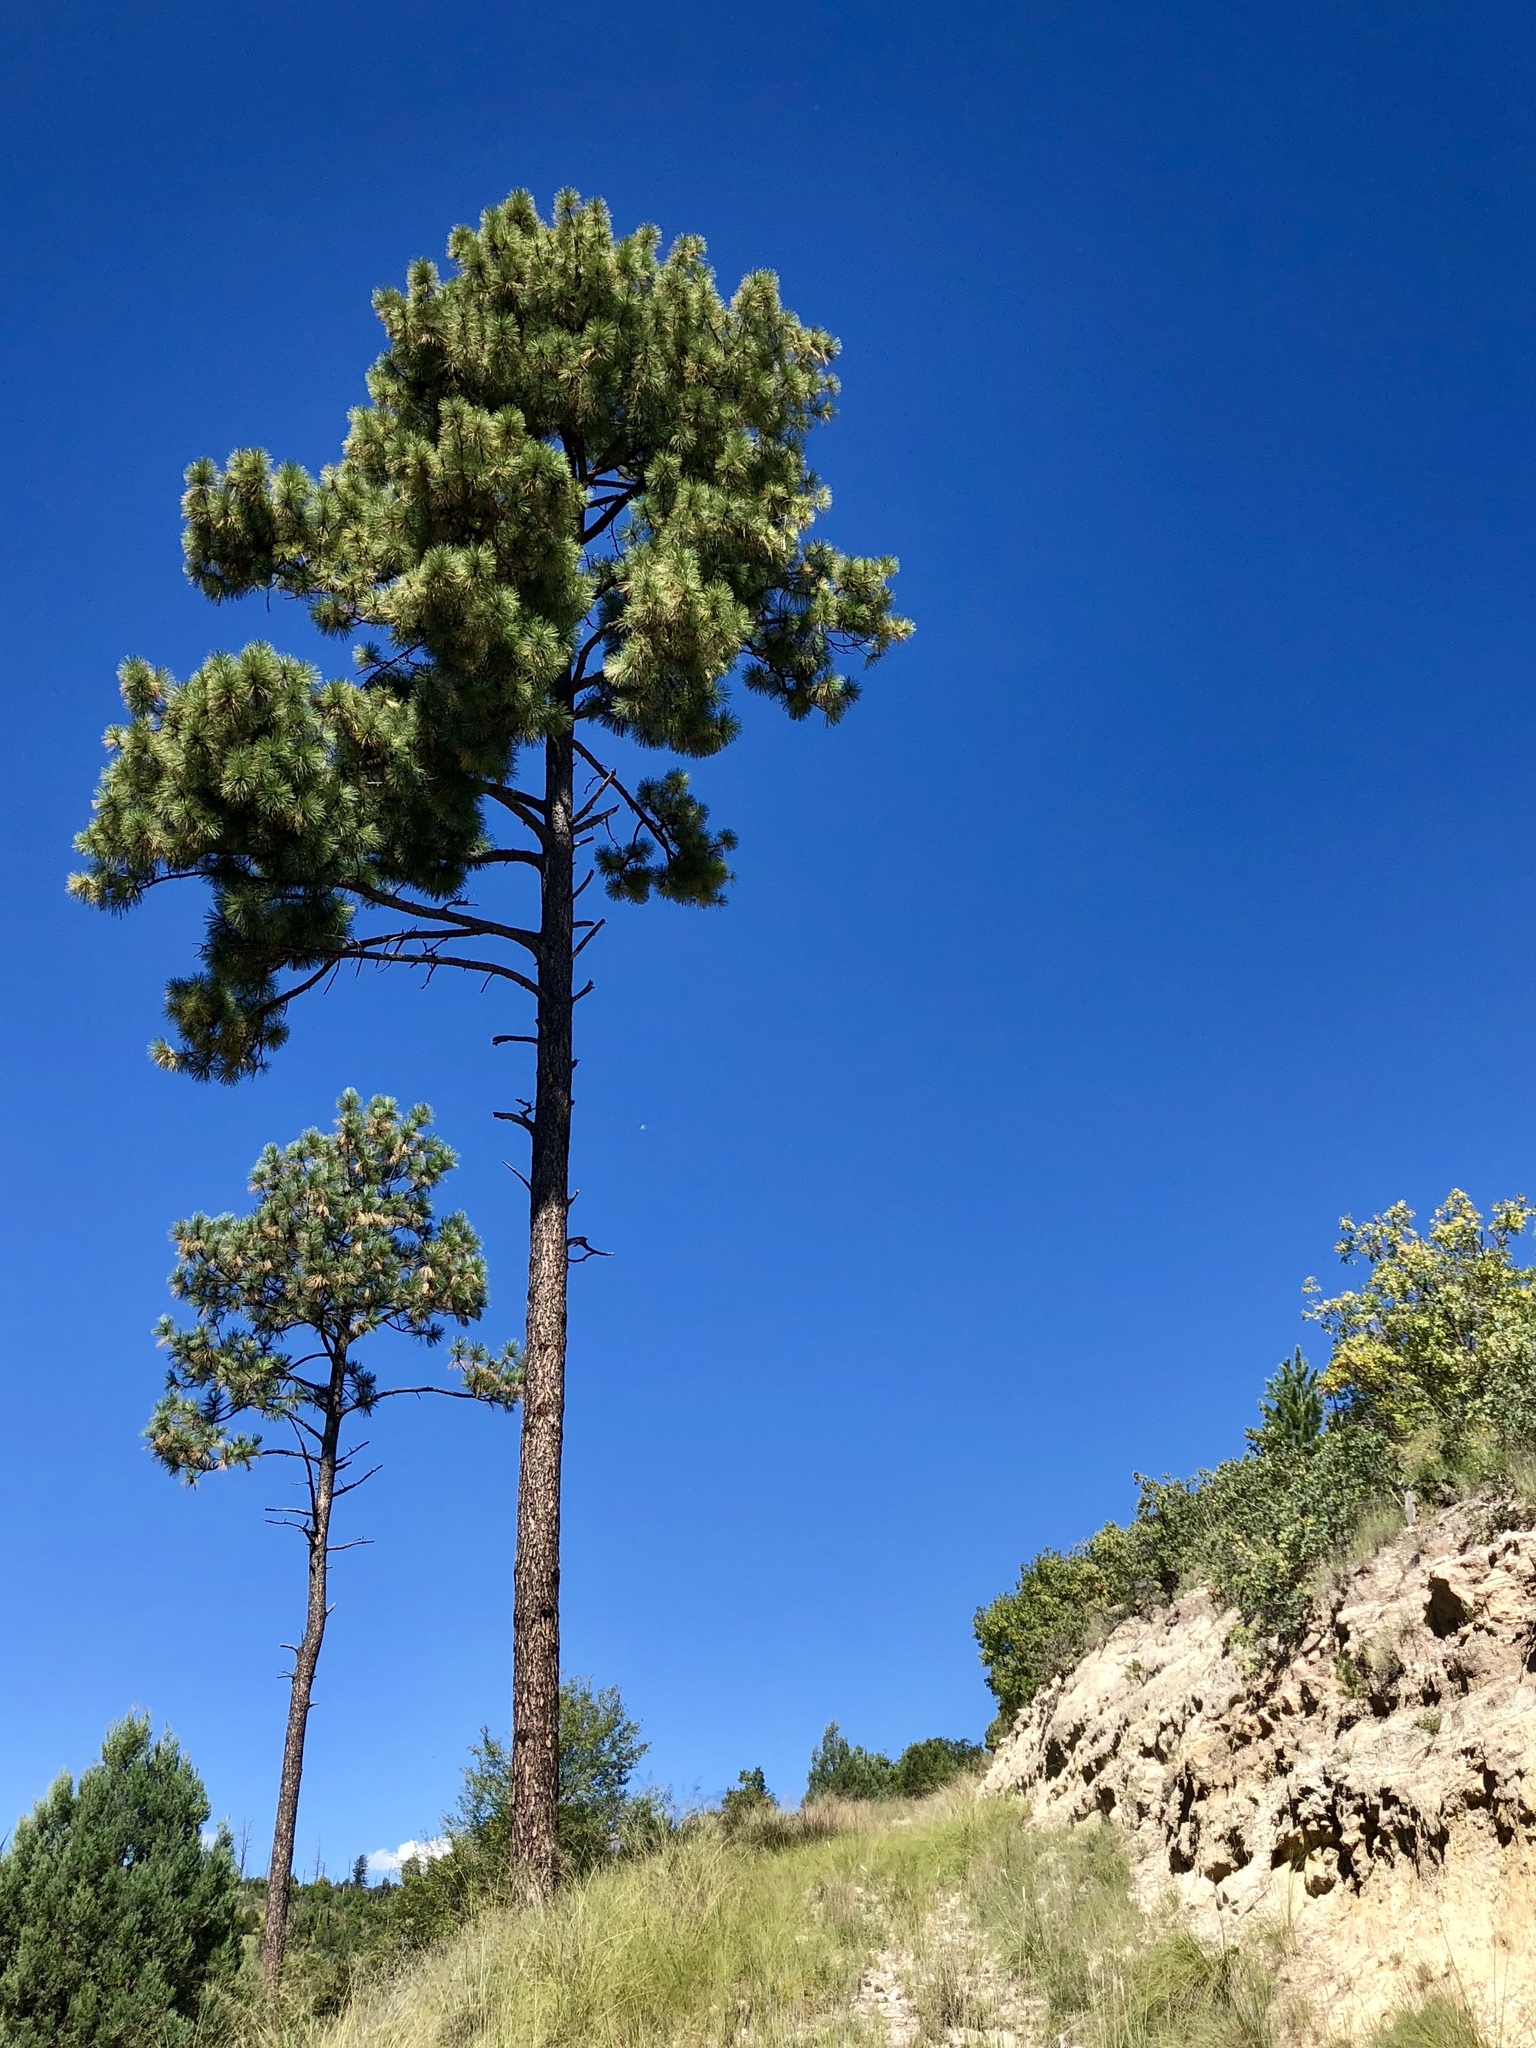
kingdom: Plantae
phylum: Tracheophyta
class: Pinopsida
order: Pinales
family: Pinaceae
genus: Pinus
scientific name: Pinus ponderosa
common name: Western yellow-pine
